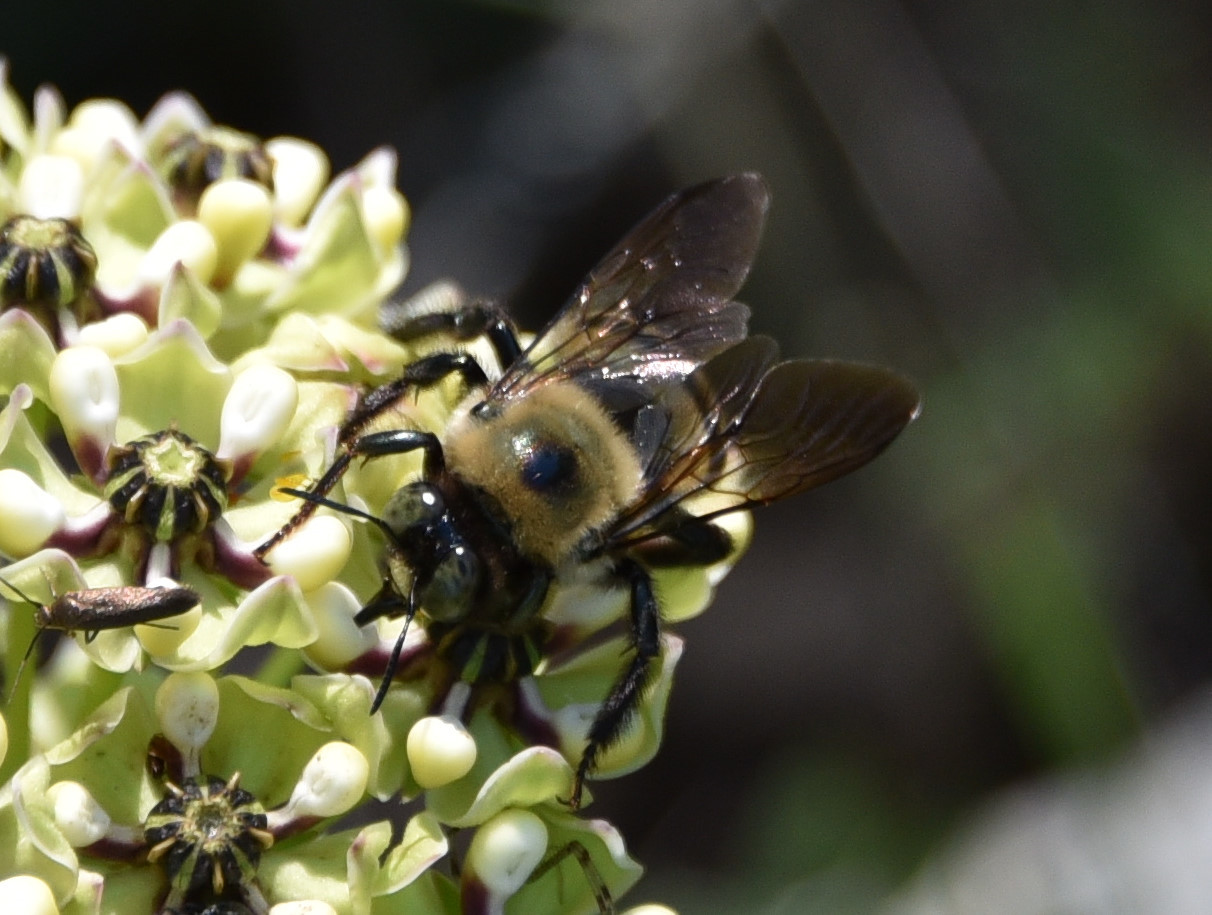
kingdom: Animalia
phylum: Arthropoda
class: Insecta
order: Hymenoptera
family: Apidae
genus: Xylocopa
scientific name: Xylocopa virginica
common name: Carpenter bee
